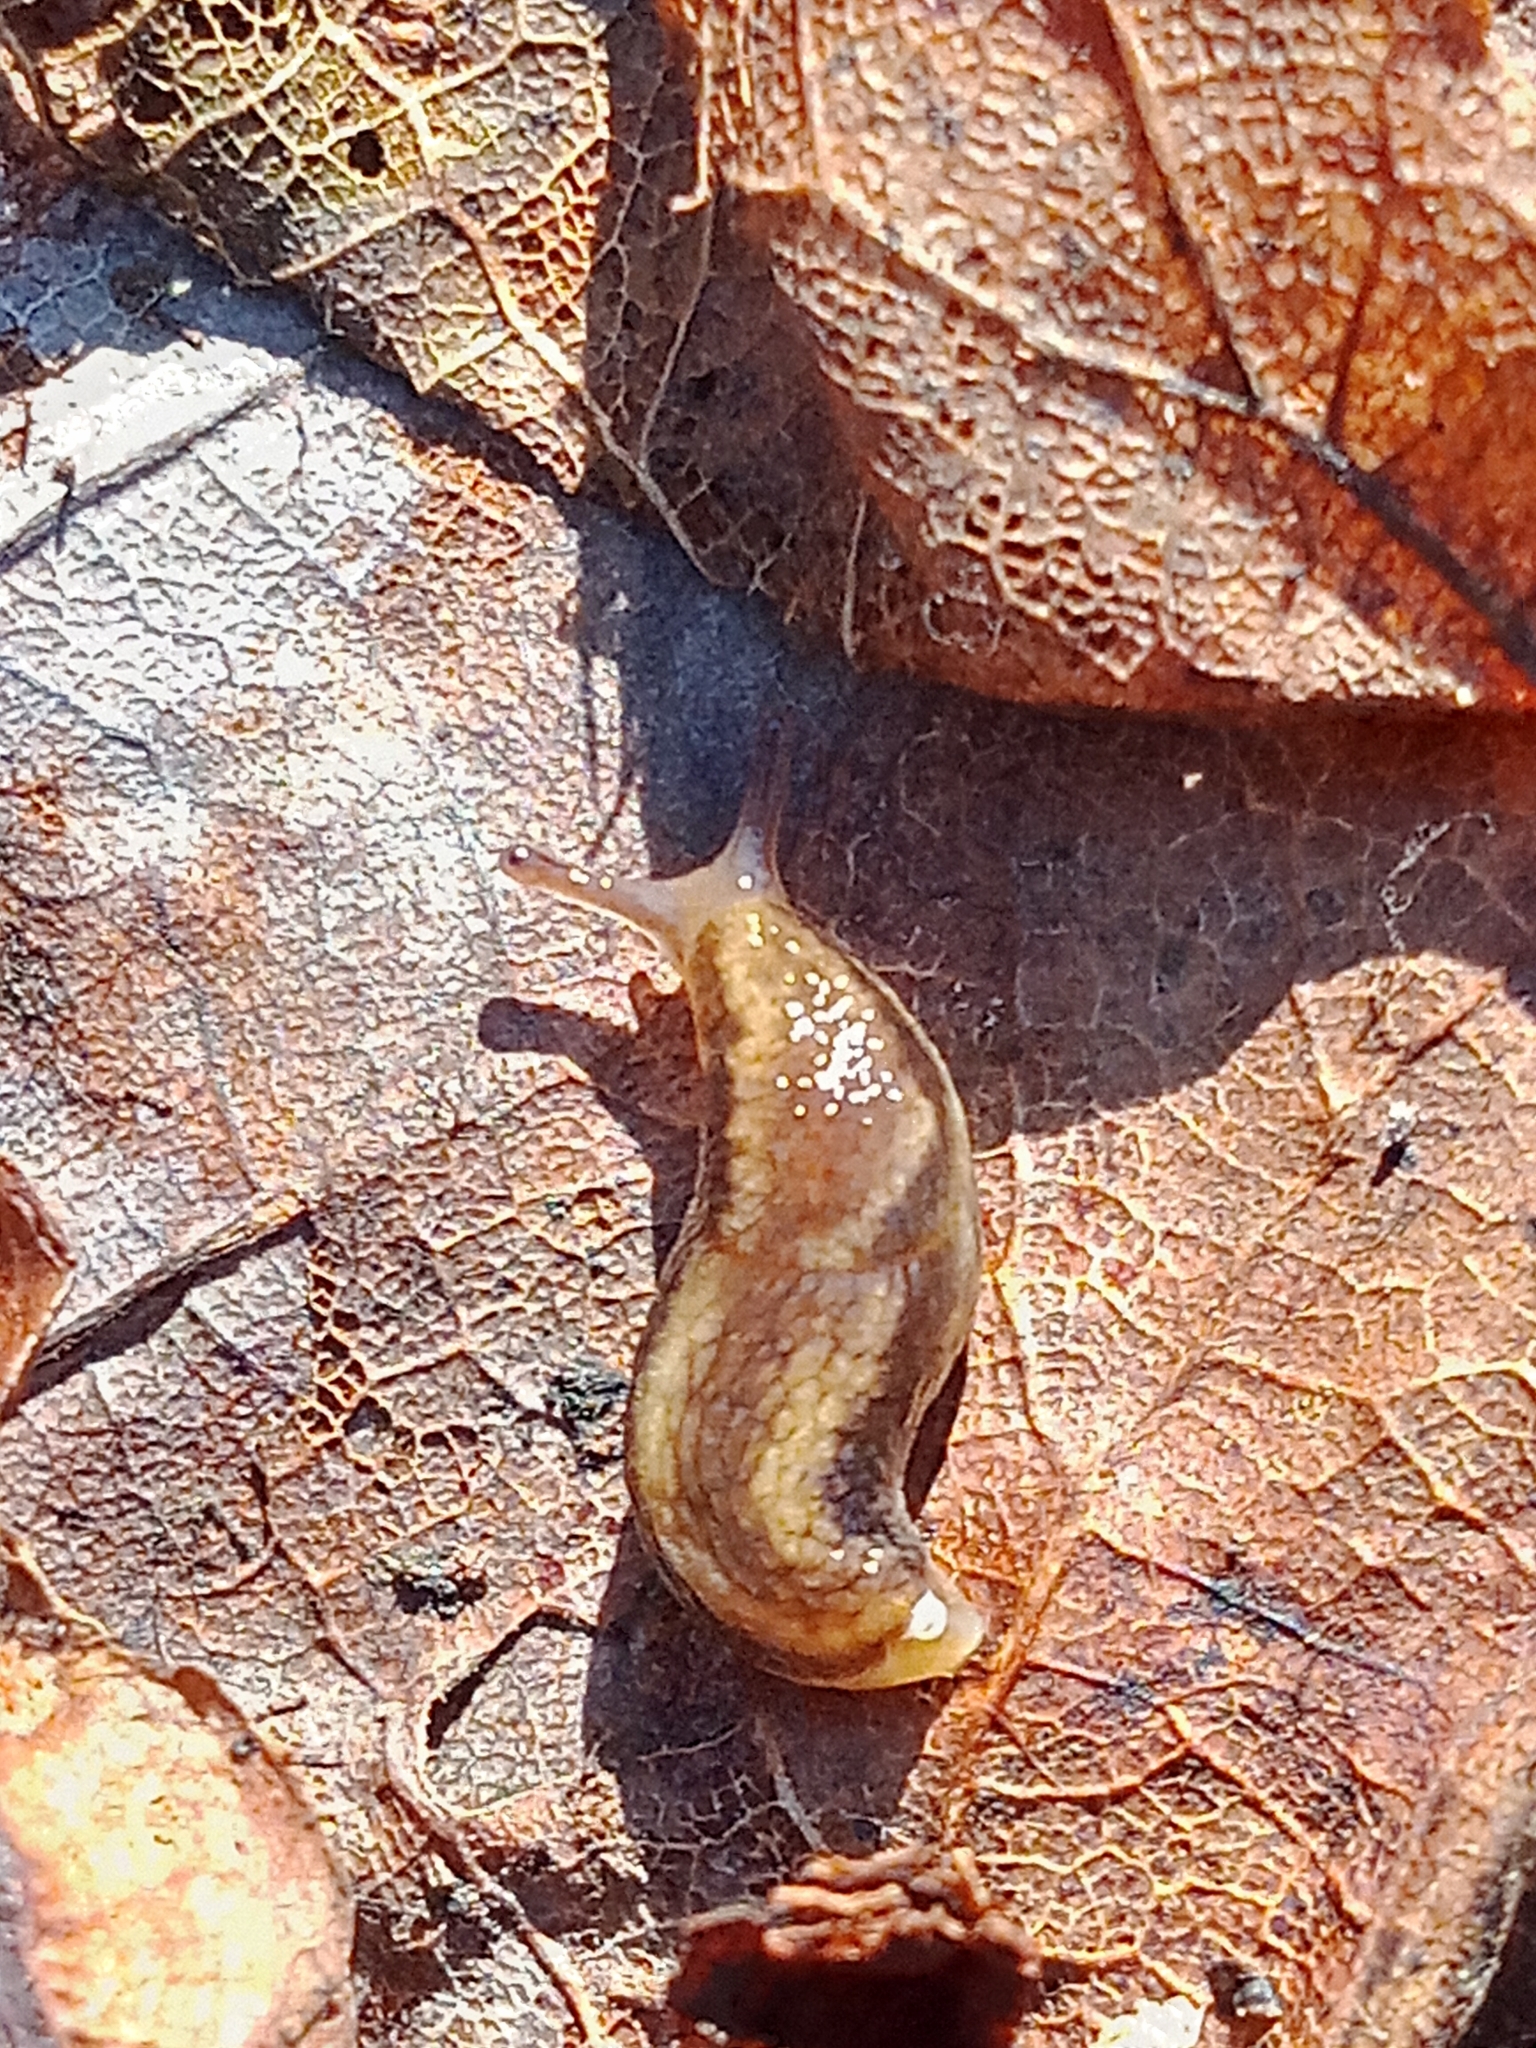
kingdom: Animalia
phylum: Mollusca
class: Gastropoda
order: Stylommatophora
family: Arionidae
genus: Arion
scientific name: Arion fuscus
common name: Northern dusky slug
